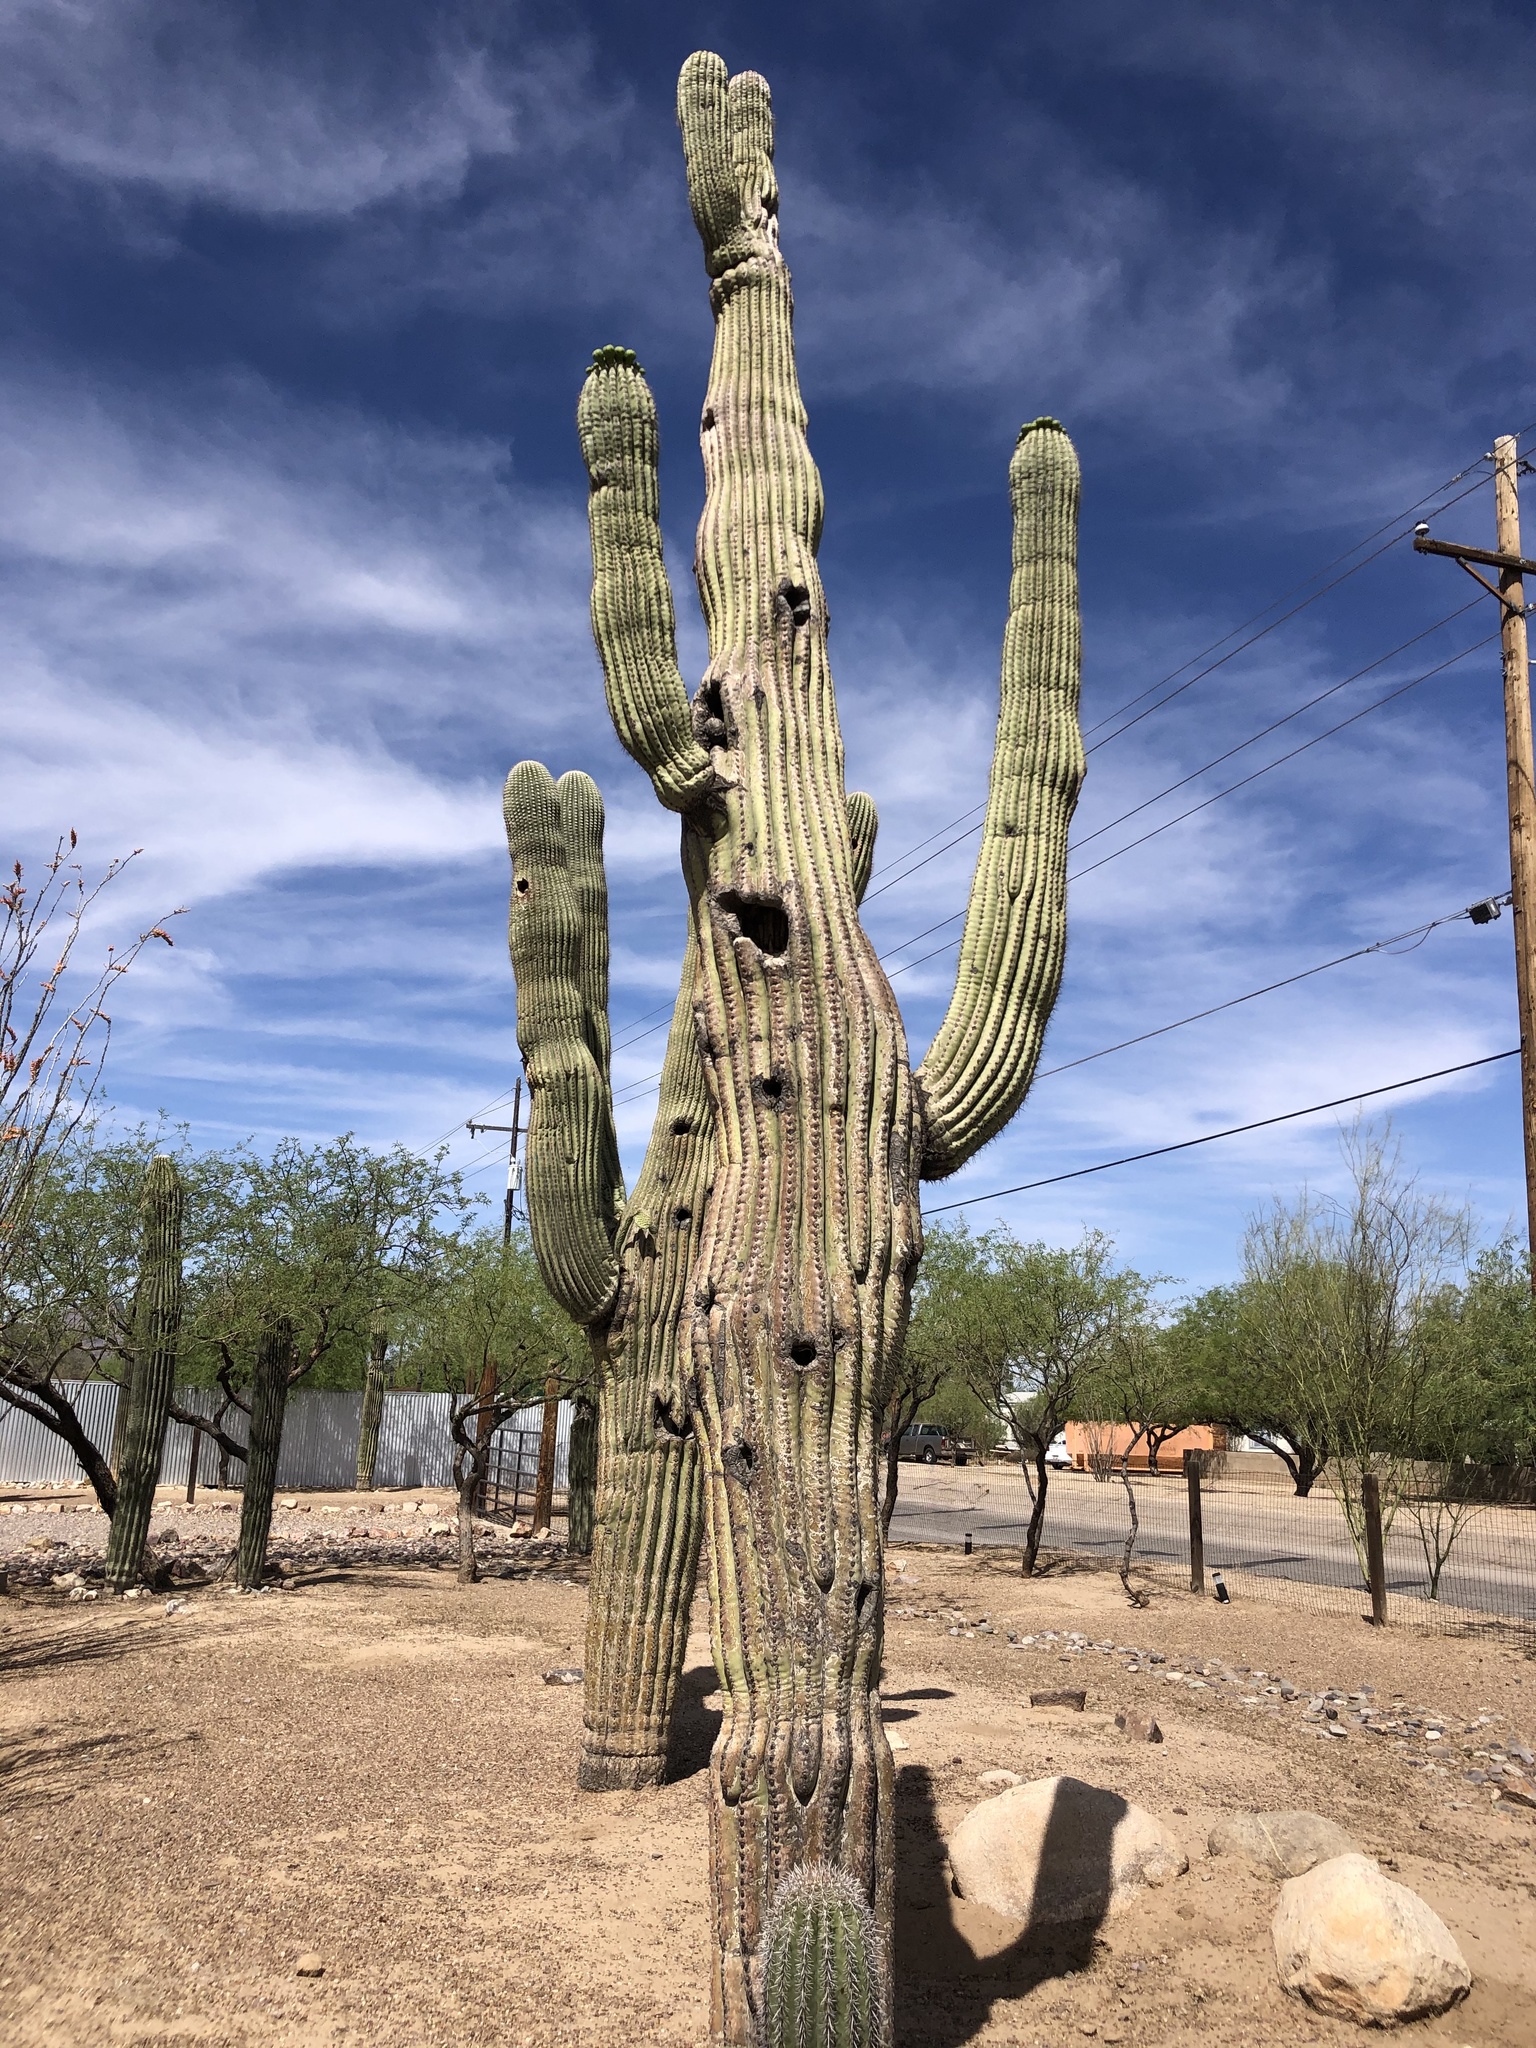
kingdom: Plantae
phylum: Tracheophyta
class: Magnoliopsida
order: Caryophyllales
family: Cactaceae
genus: Carnegiea
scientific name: Carnegiea gigantea
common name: Saguaro
